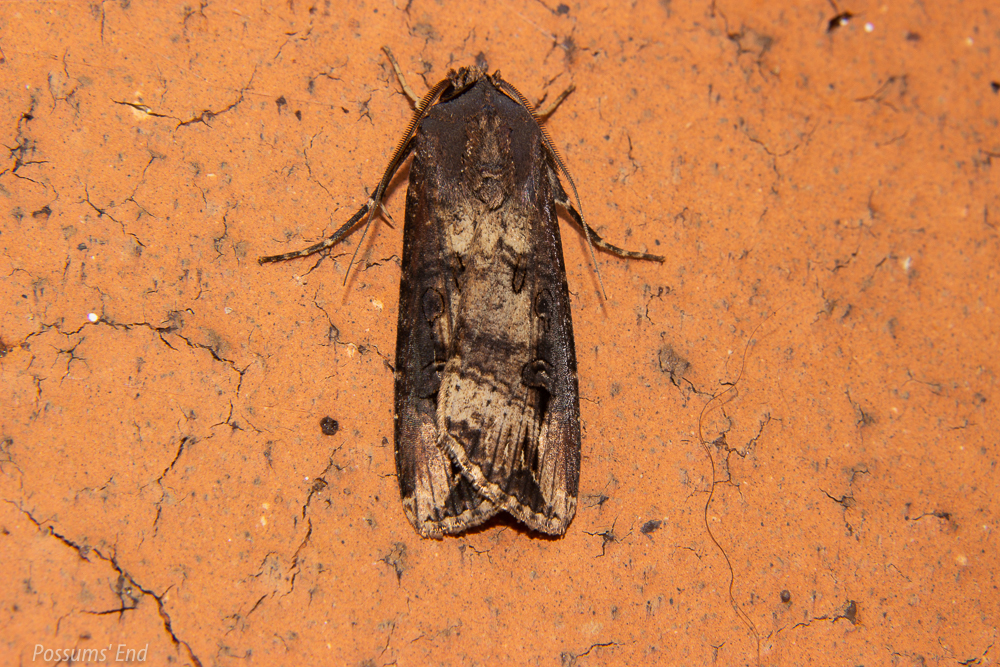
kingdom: Animalia
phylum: Arthropoda
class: Insecta
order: Lepidoptera
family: Noctuidae
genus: Agrotis
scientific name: Agrotis ipsilon
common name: Dark sword-grass
